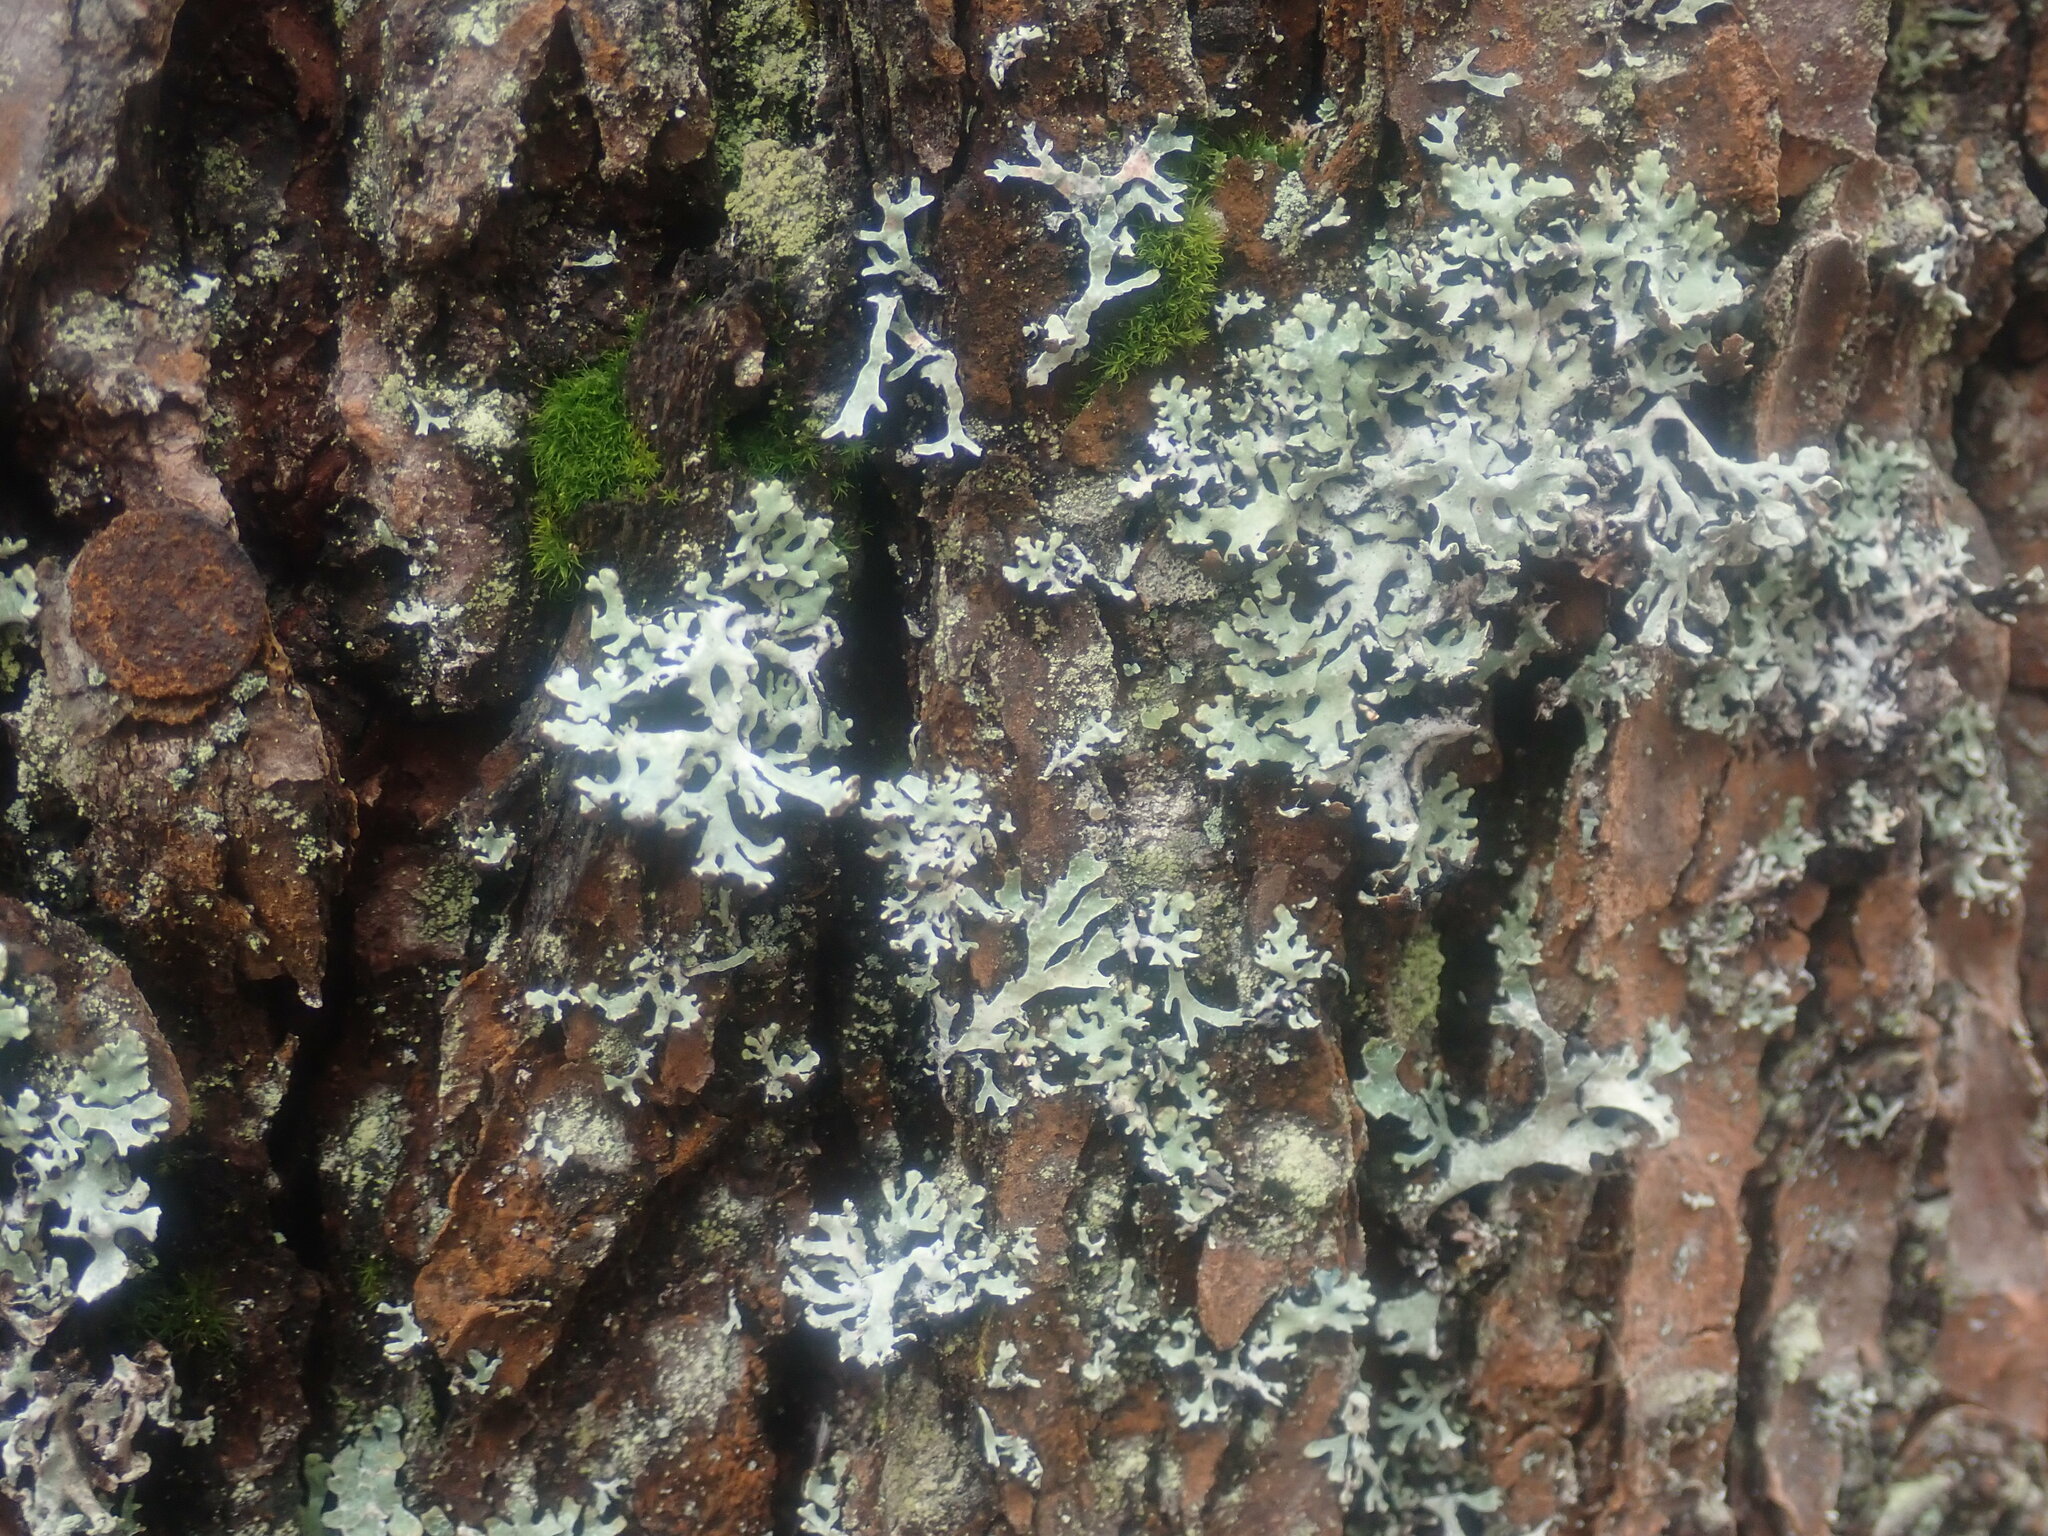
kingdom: Fungi
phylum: Ascomycota
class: Lecanoromycetes
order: Lecanorales
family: Parmeliaceae
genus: Hypogymnia
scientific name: Hypogymnia physodes
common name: Dark crottle
